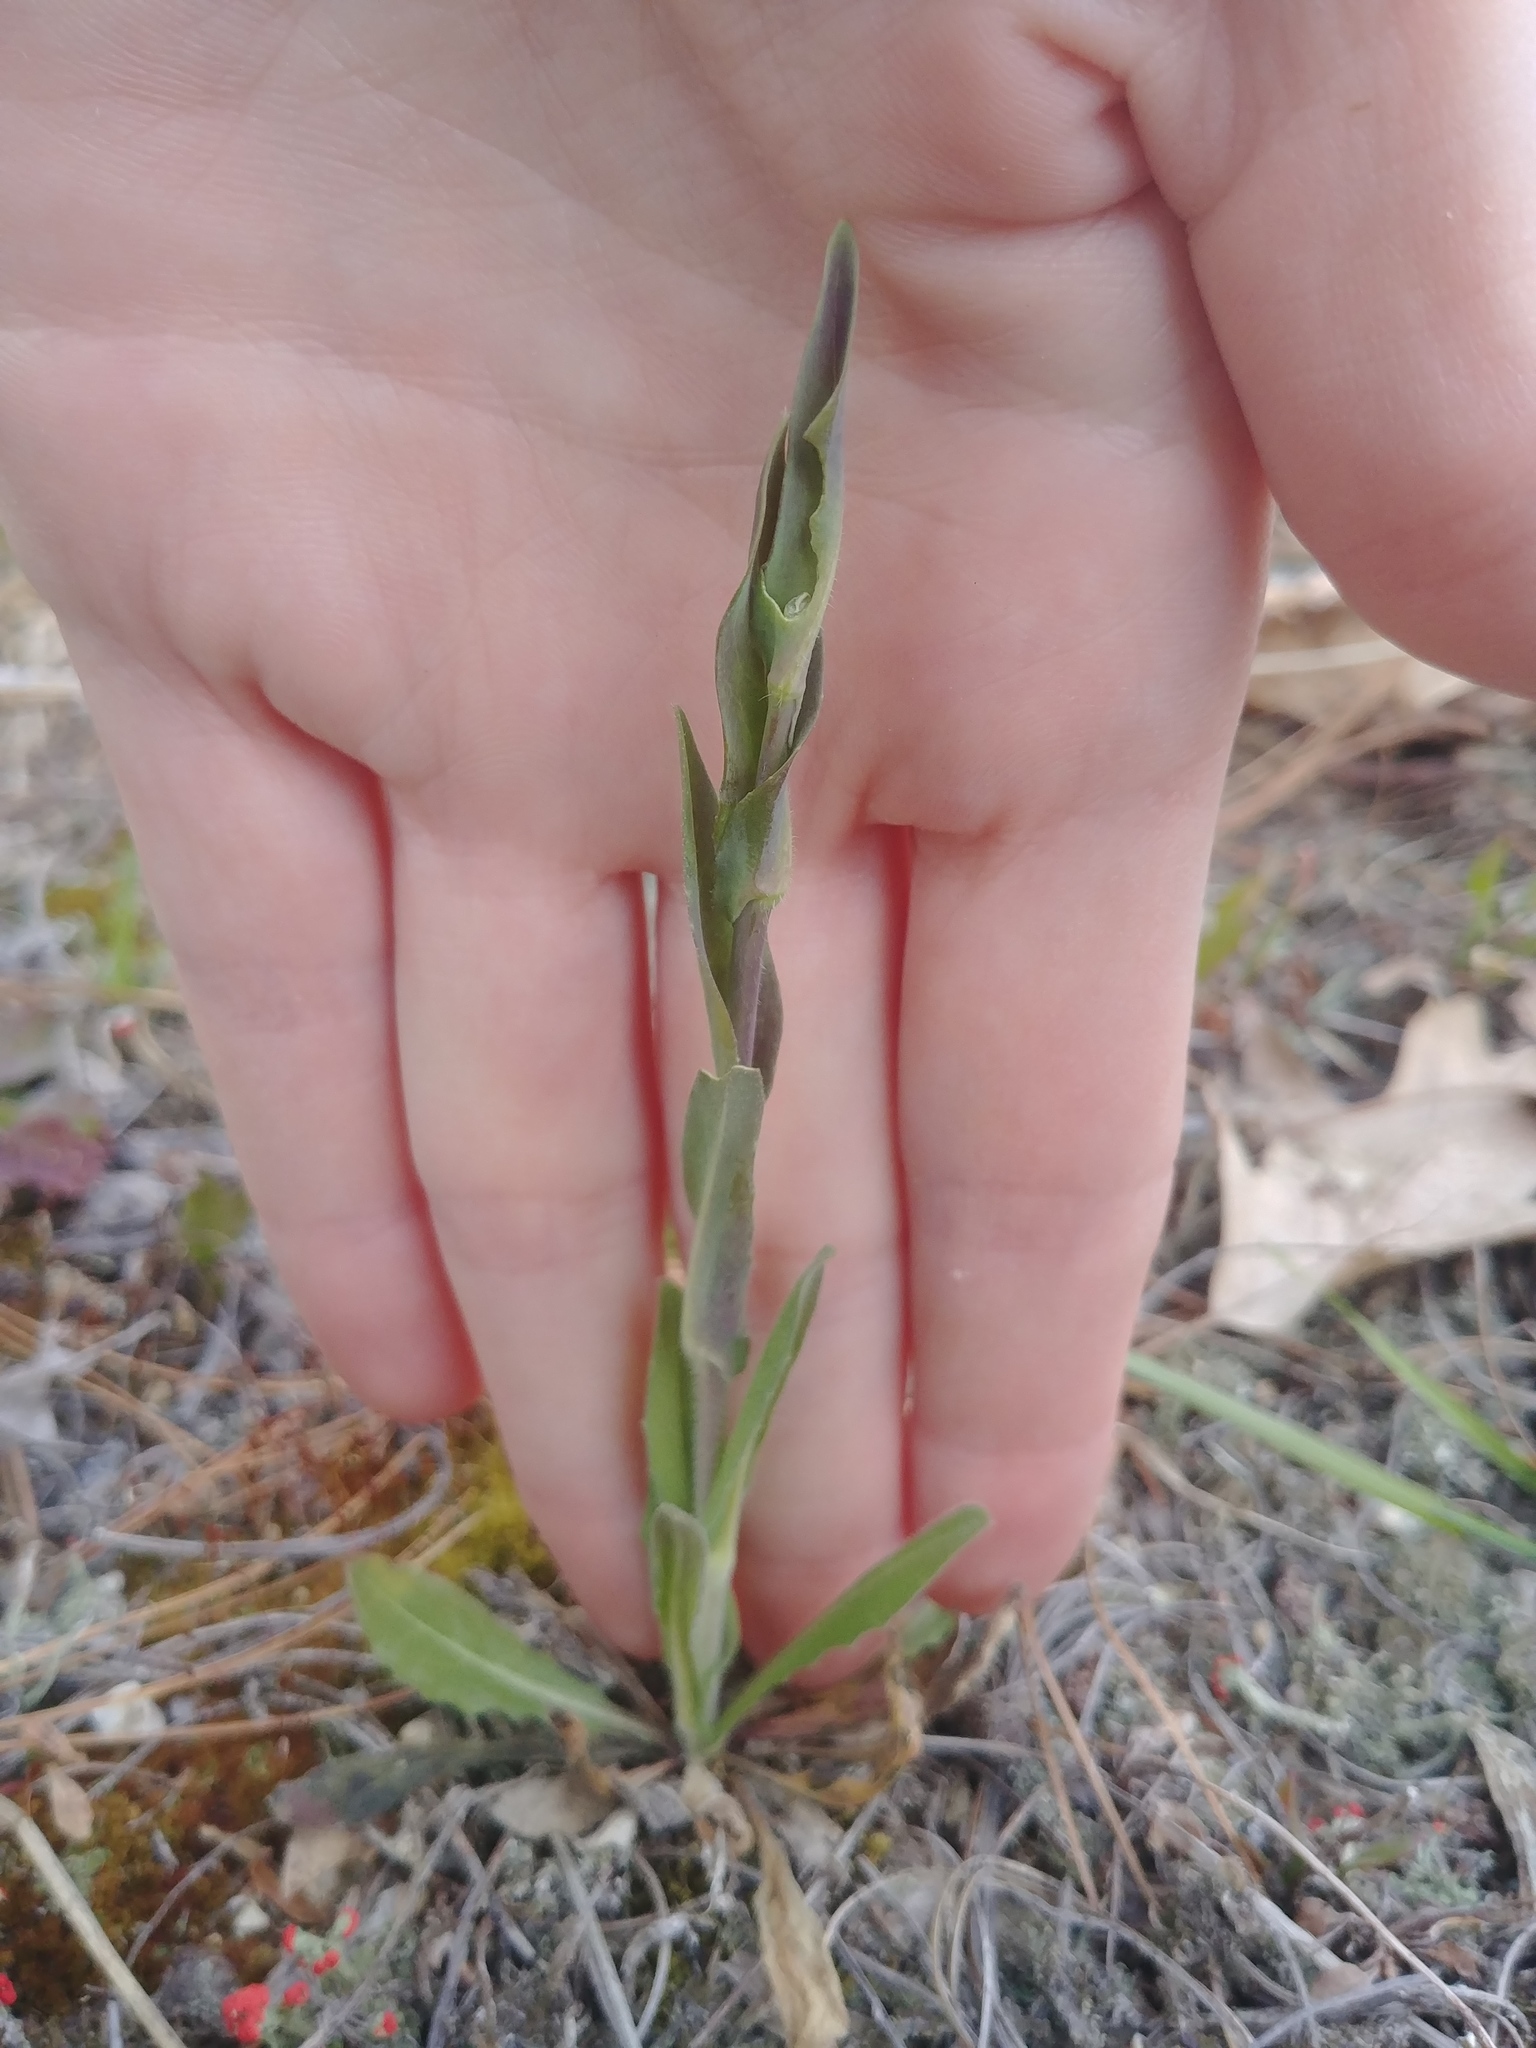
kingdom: Plantae
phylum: Tracheophyta
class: Magnoliopsida
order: Brassicales
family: Brassicaceae
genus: Turritis
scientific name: Turritis glabra
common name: Tower rockcress
